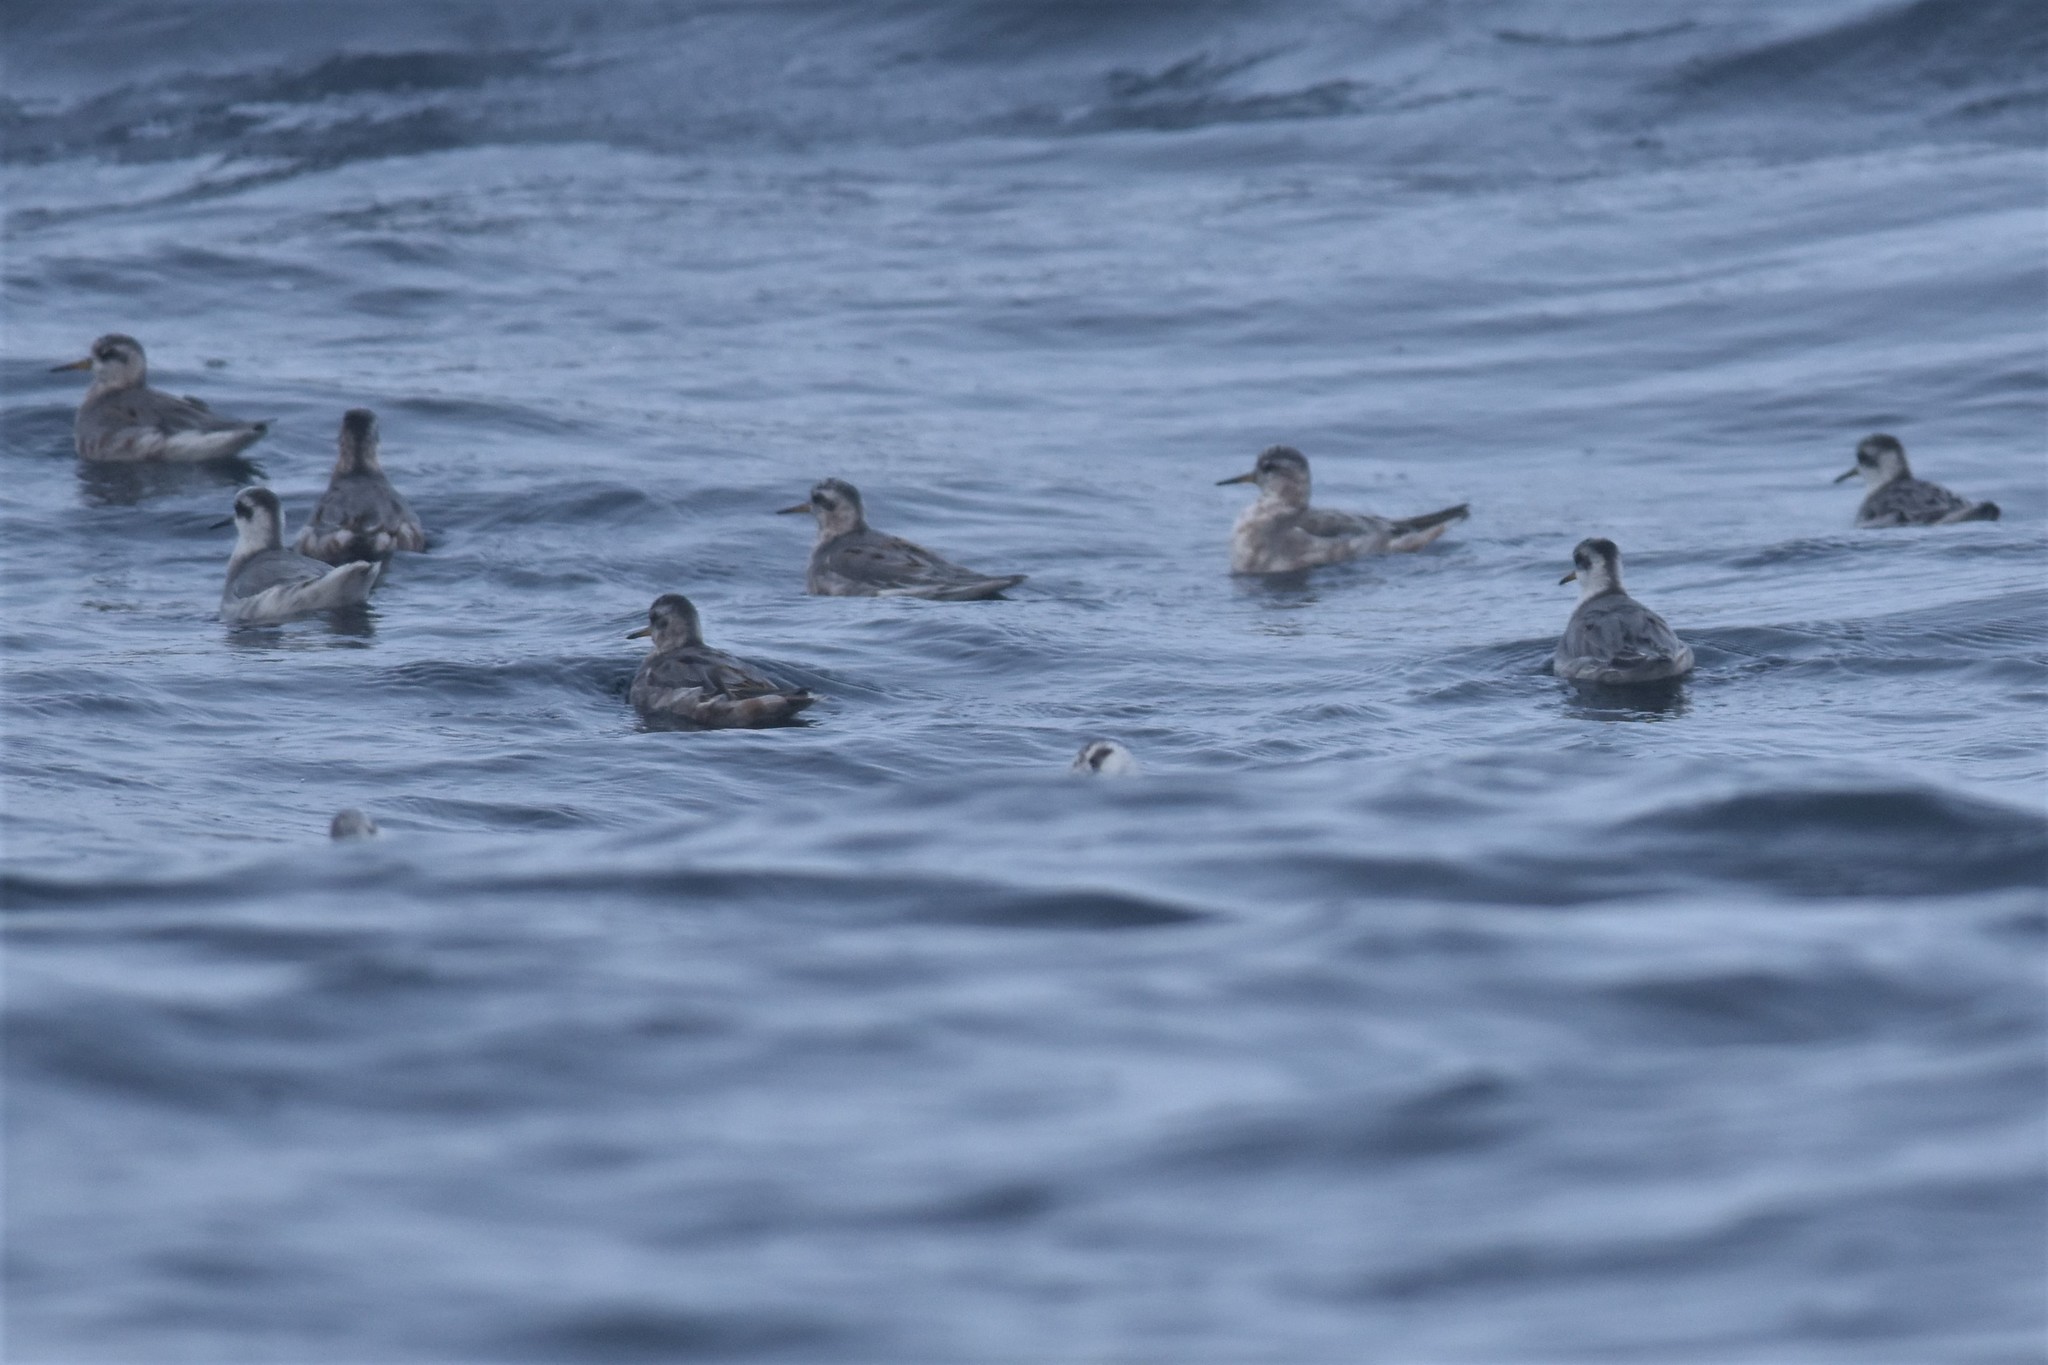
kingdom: Animalia
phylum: Chordata
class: Aves
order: Charadriiformes
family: Scolopacidae
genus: Phalaropus
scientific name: Phalaropus fulicarius
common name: Red phalarope
